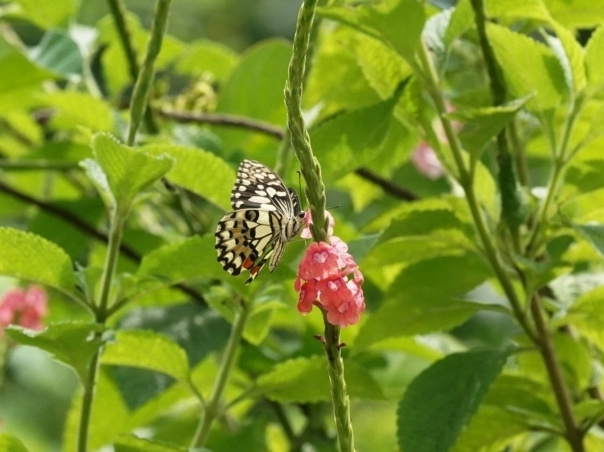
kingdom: Animalia
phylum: Arthropoda
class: Insecta
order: Lepidoptera
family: Papilionidae
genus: Papilio
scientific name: Papilio demoleus
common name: Lime butterfly
